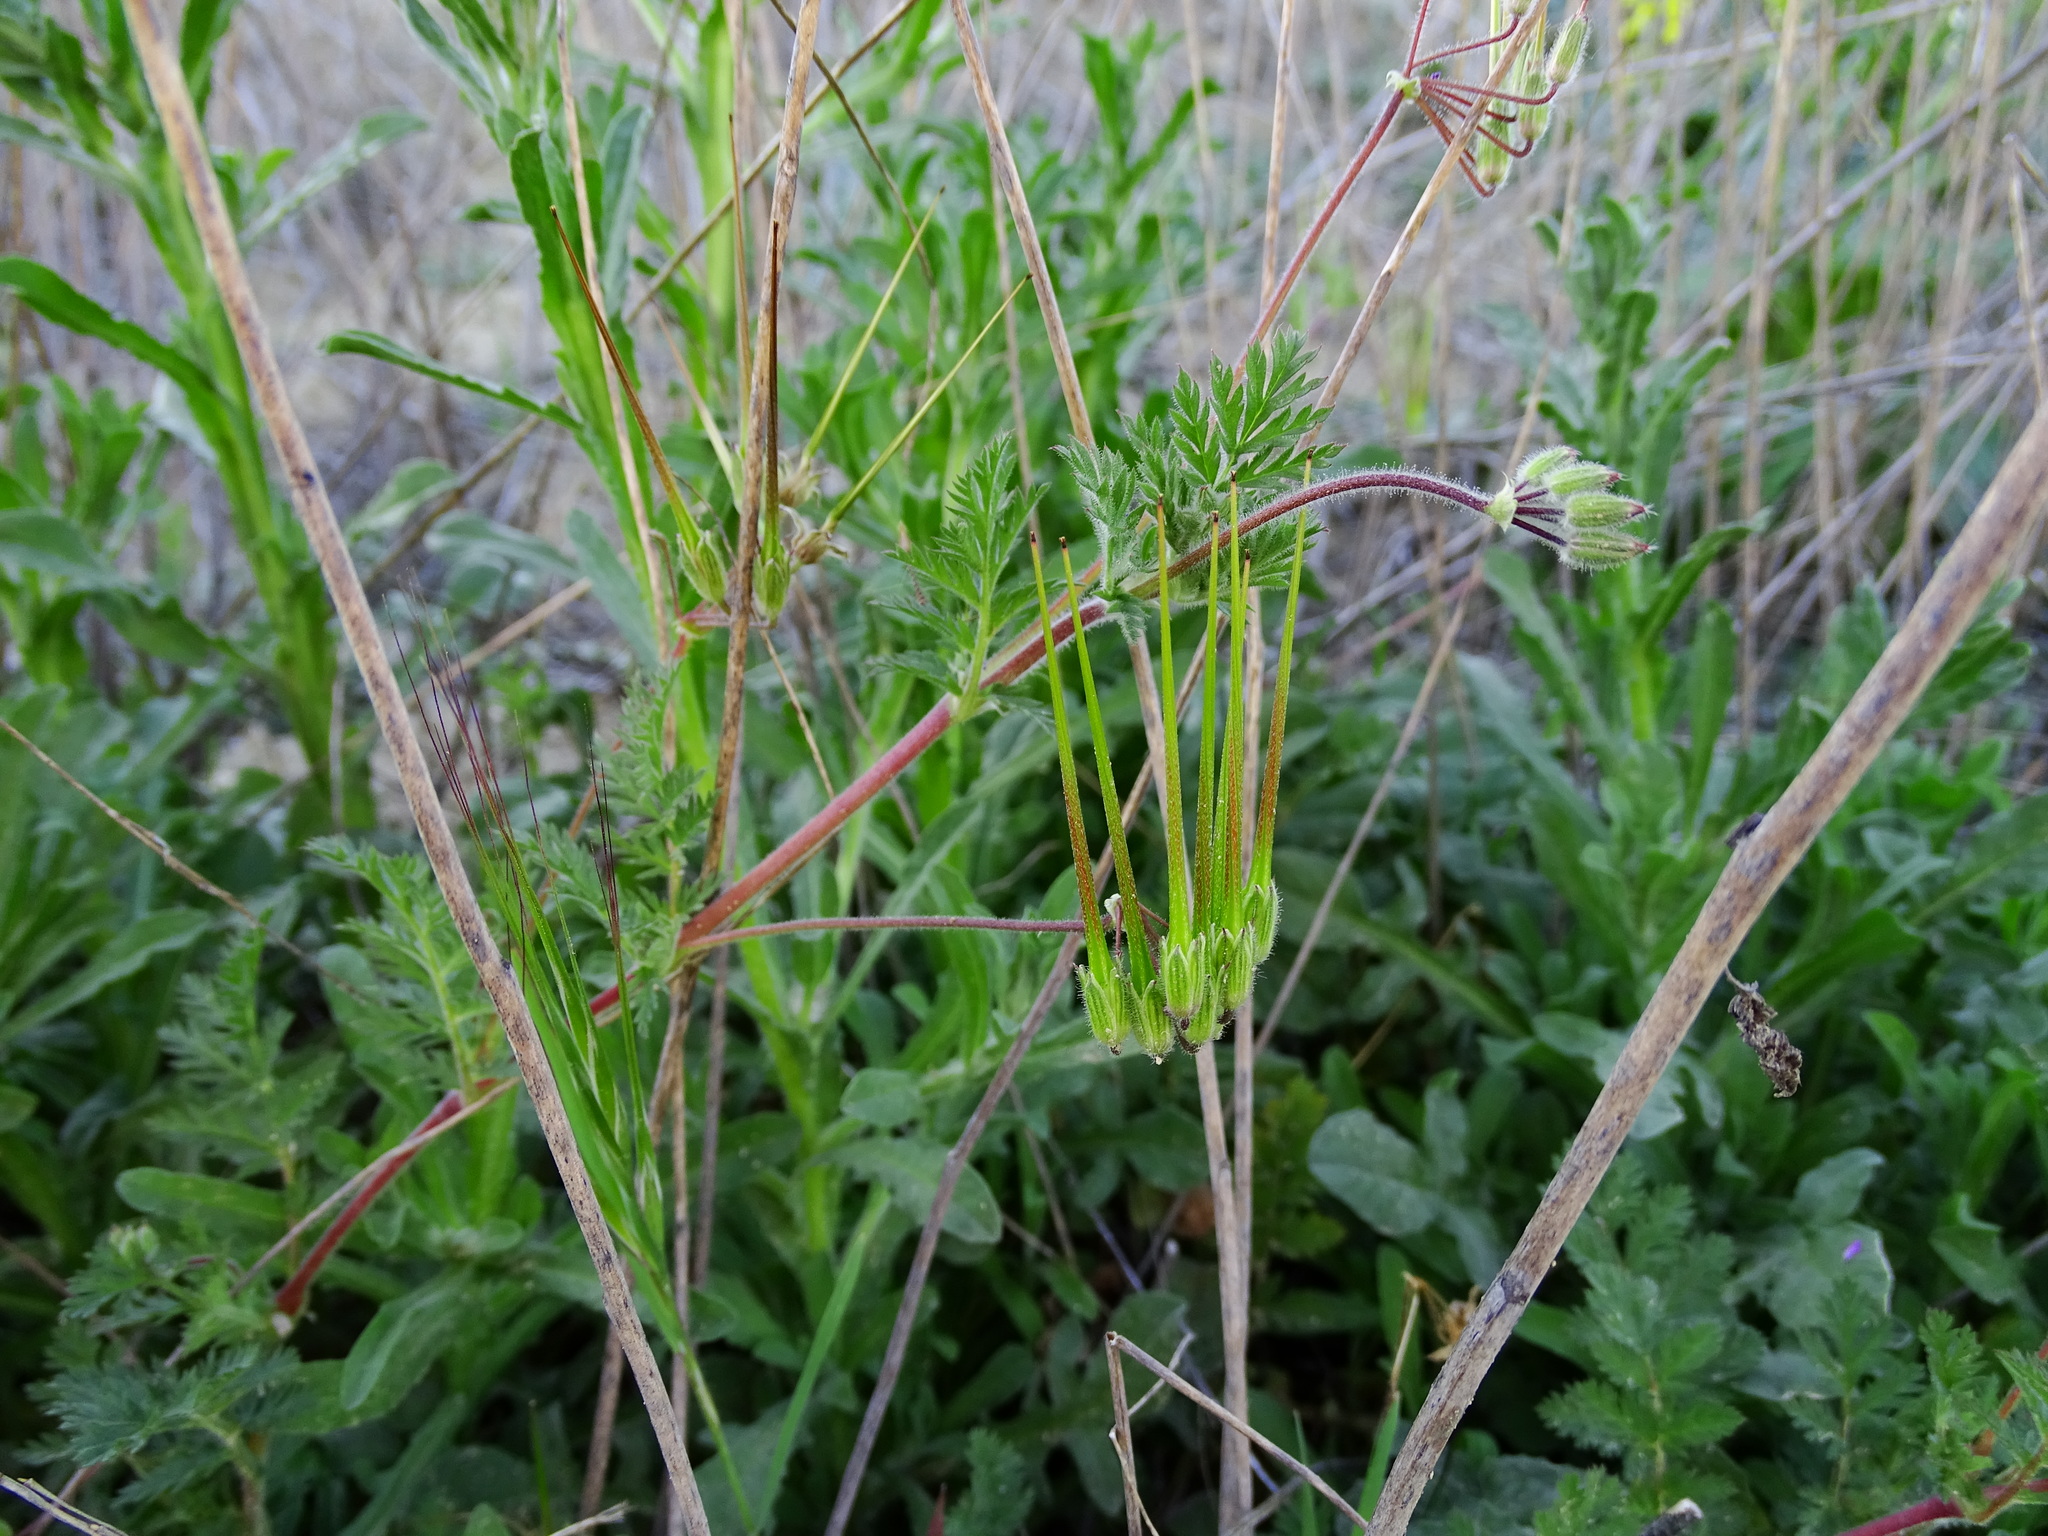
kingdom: Plantae
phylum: Tracheophyta
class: Magnoliopsida
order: Geraniales
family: Geraniaceae
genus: Erodium
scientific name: Erodium cicutarium
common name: Common stork's-bill
